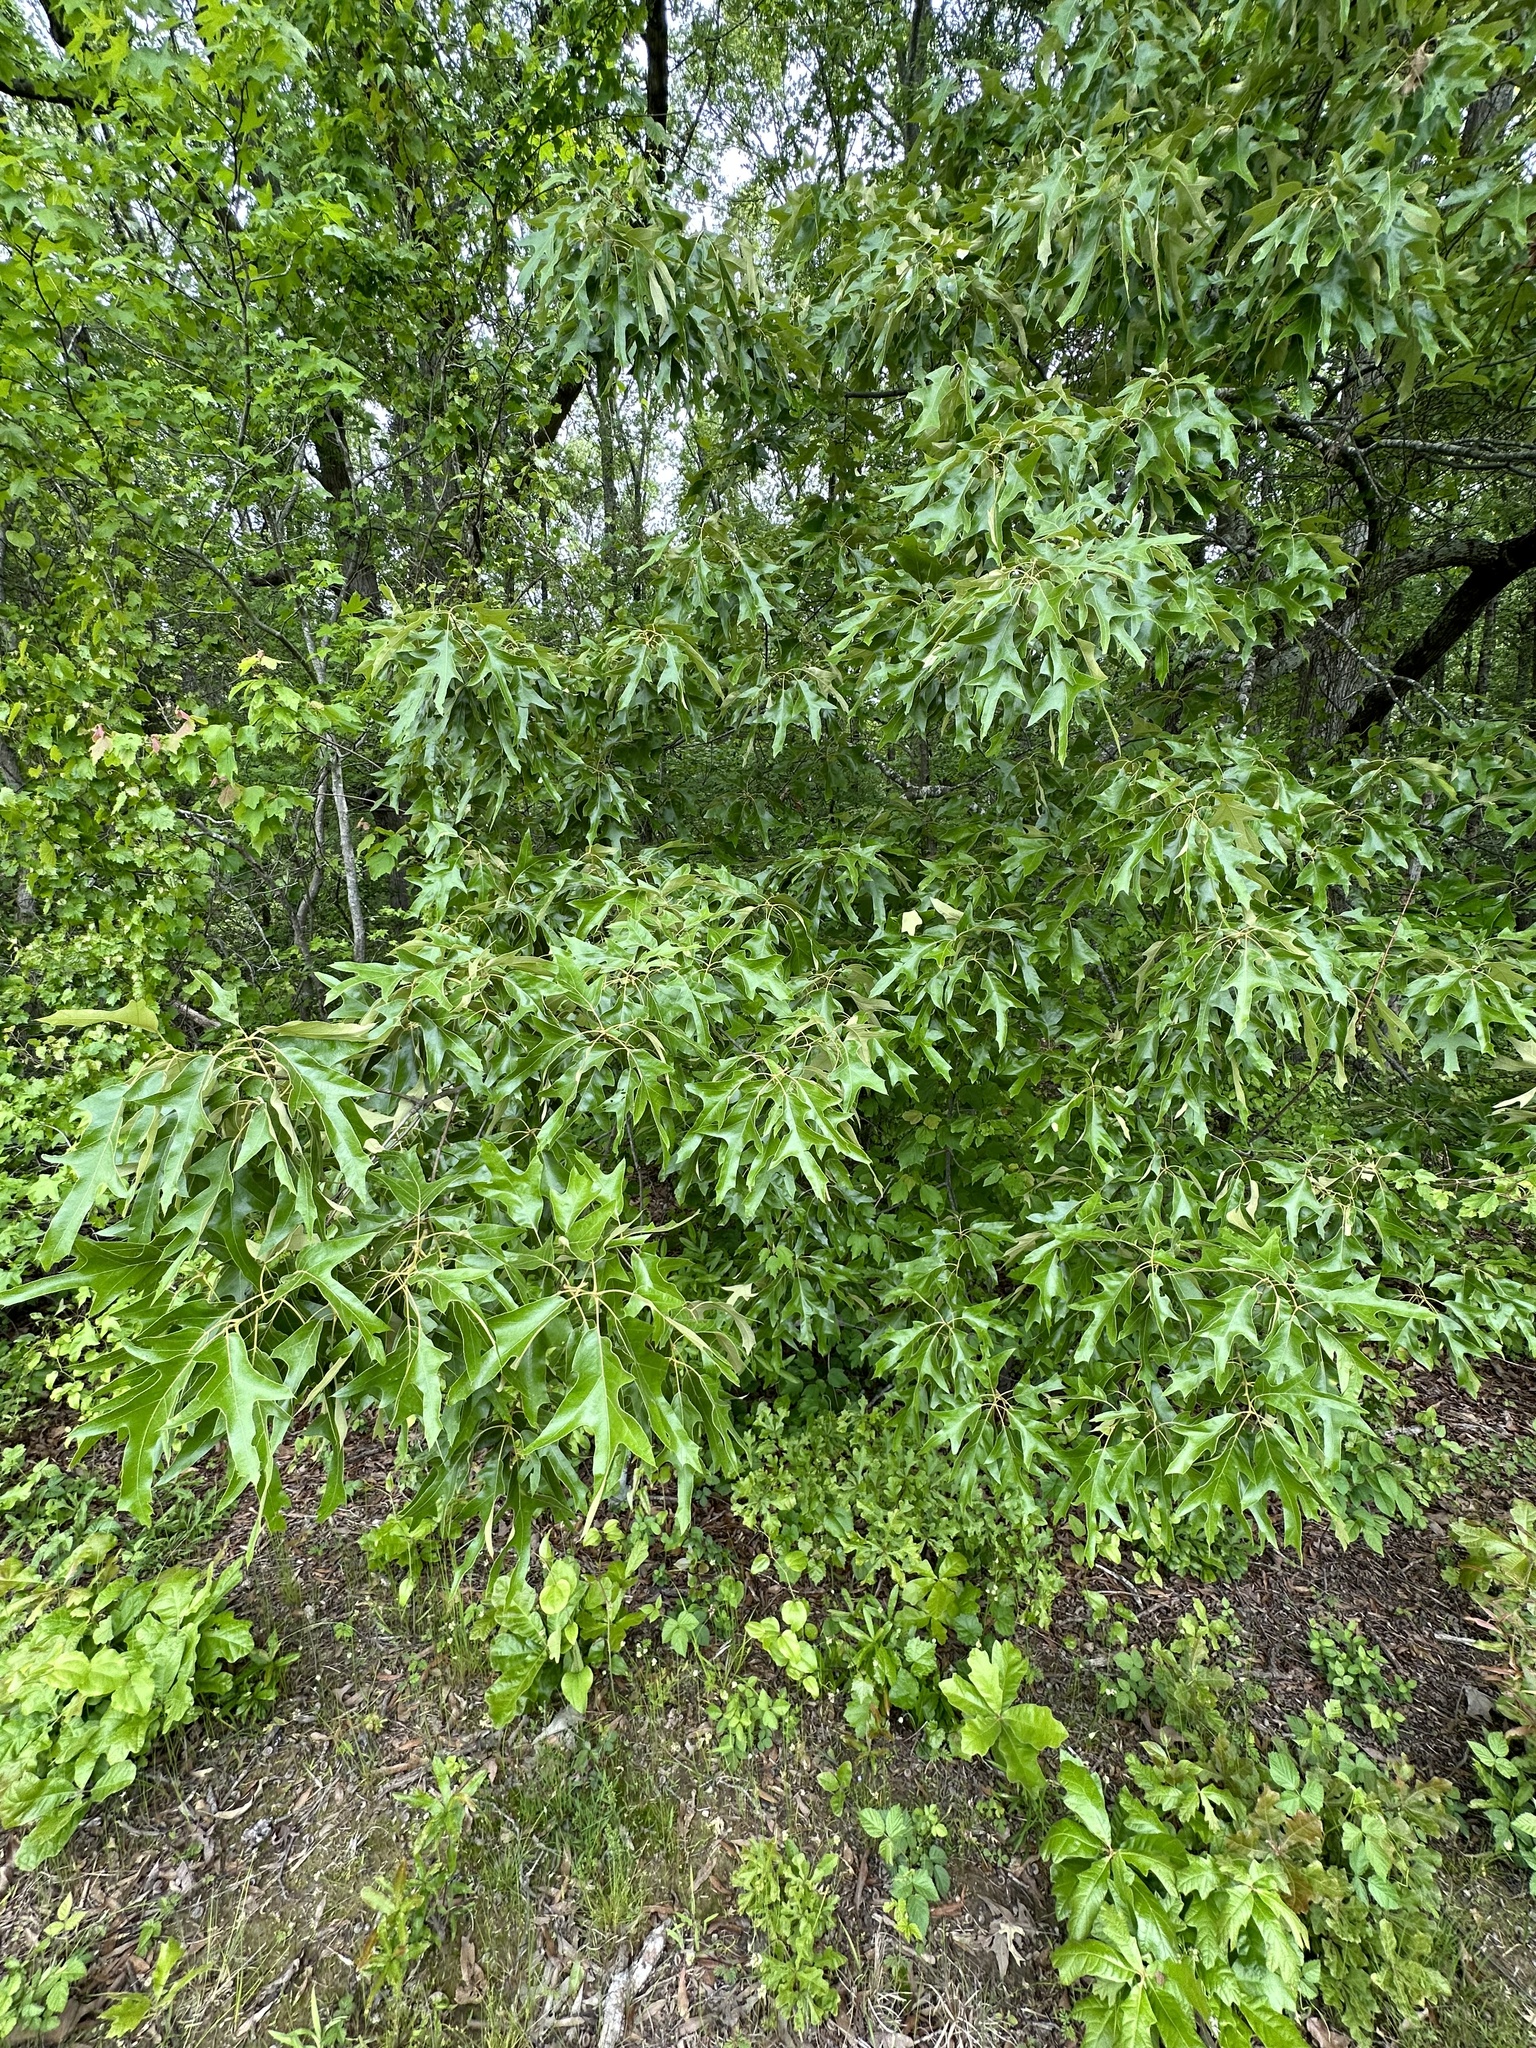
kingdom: Plantae
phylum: Tracheophyta
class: Magnoliopsida
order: Fagales
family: Fagaceae
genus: Quercus
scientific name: Quercus falcata
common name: Southern red oak
